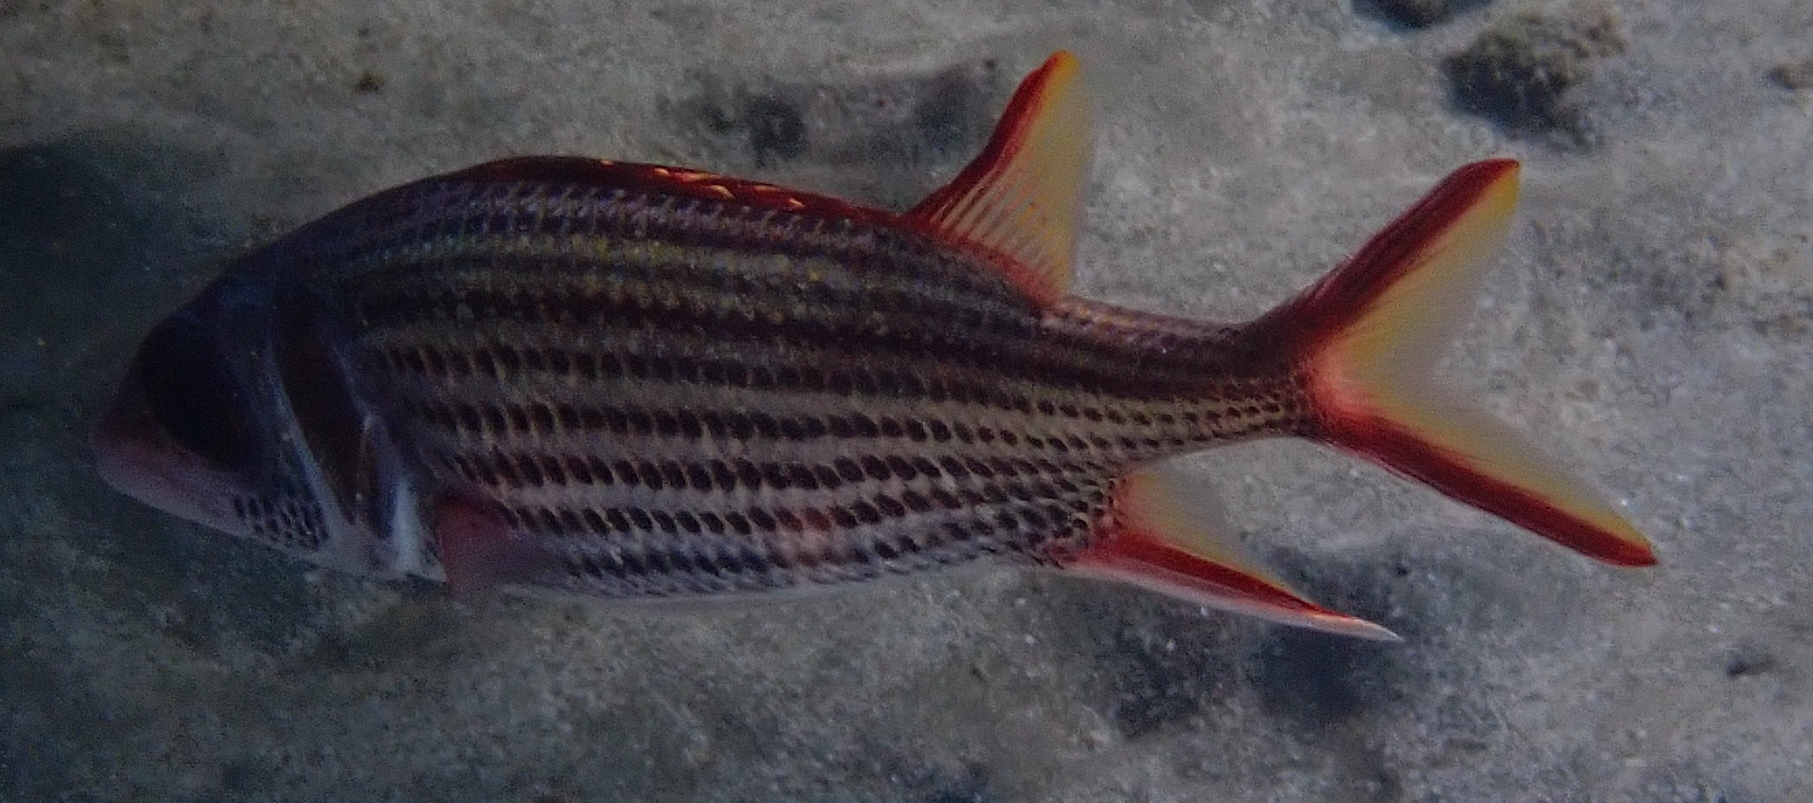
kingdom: Animalia
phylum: Chordata
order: Beryciformes
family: Holocentridae
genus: Neoniphon
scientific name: Neoniphon sammara
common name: Sammara squirrelfish
